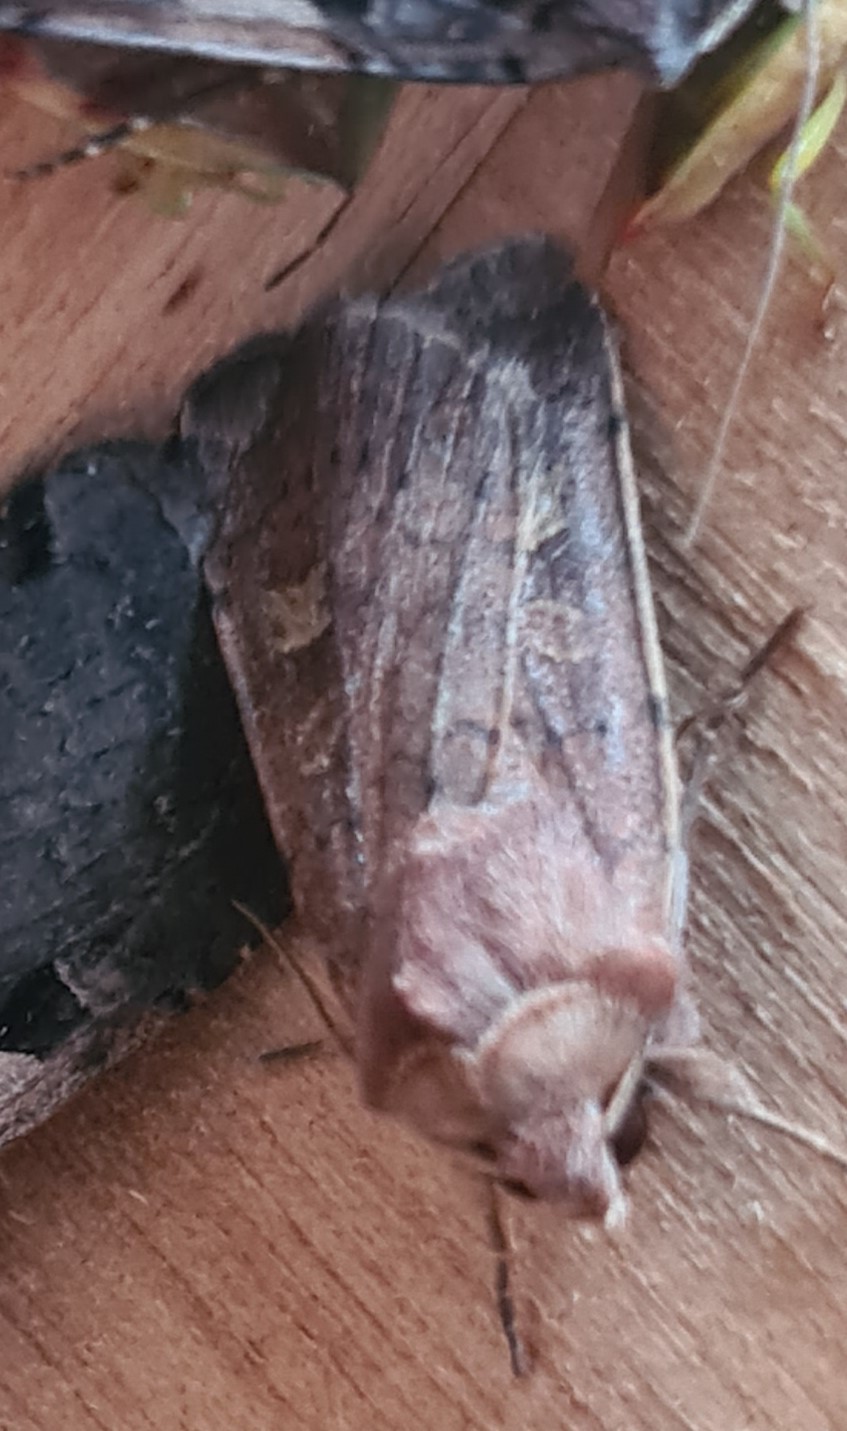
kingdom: Animalia
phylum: Arthropoda
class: Insecta
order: Lepidoptera
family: Noctuidae
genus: Xestia
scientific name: Xestia xanthographa
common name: Square-spot rustic
